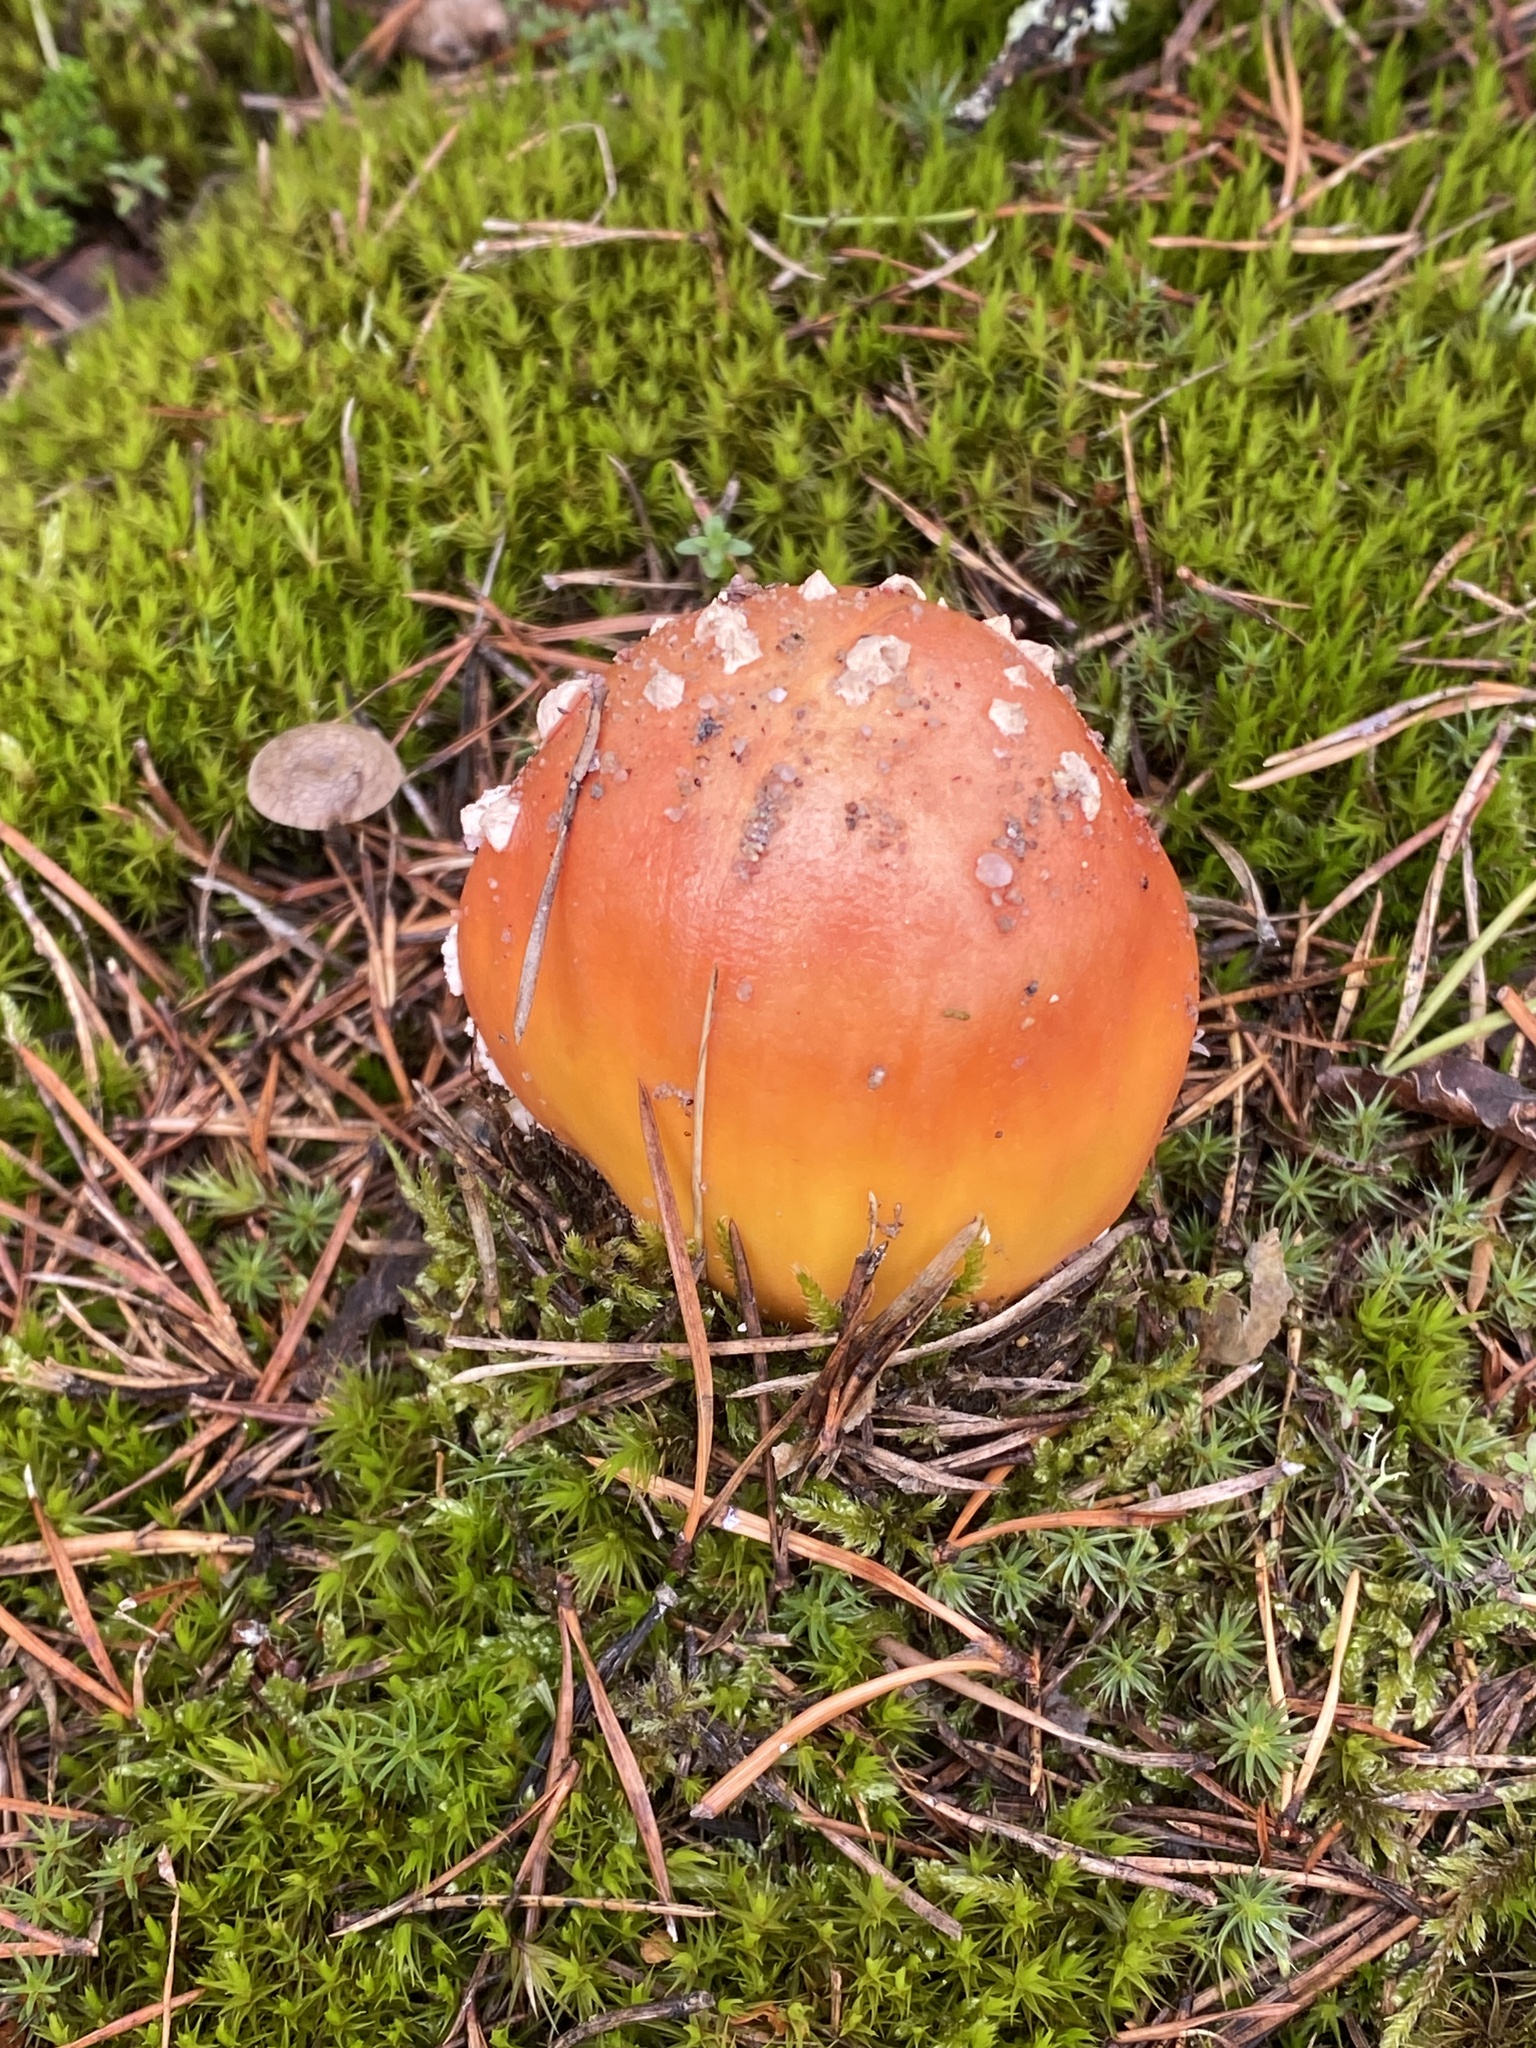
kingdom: Fungi
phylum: Basidiomycota
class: Agaricomycetes
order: Agaricales
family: Amanitaceae
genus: Amanita
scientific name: Amanita muscaria
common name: Fly agaric
